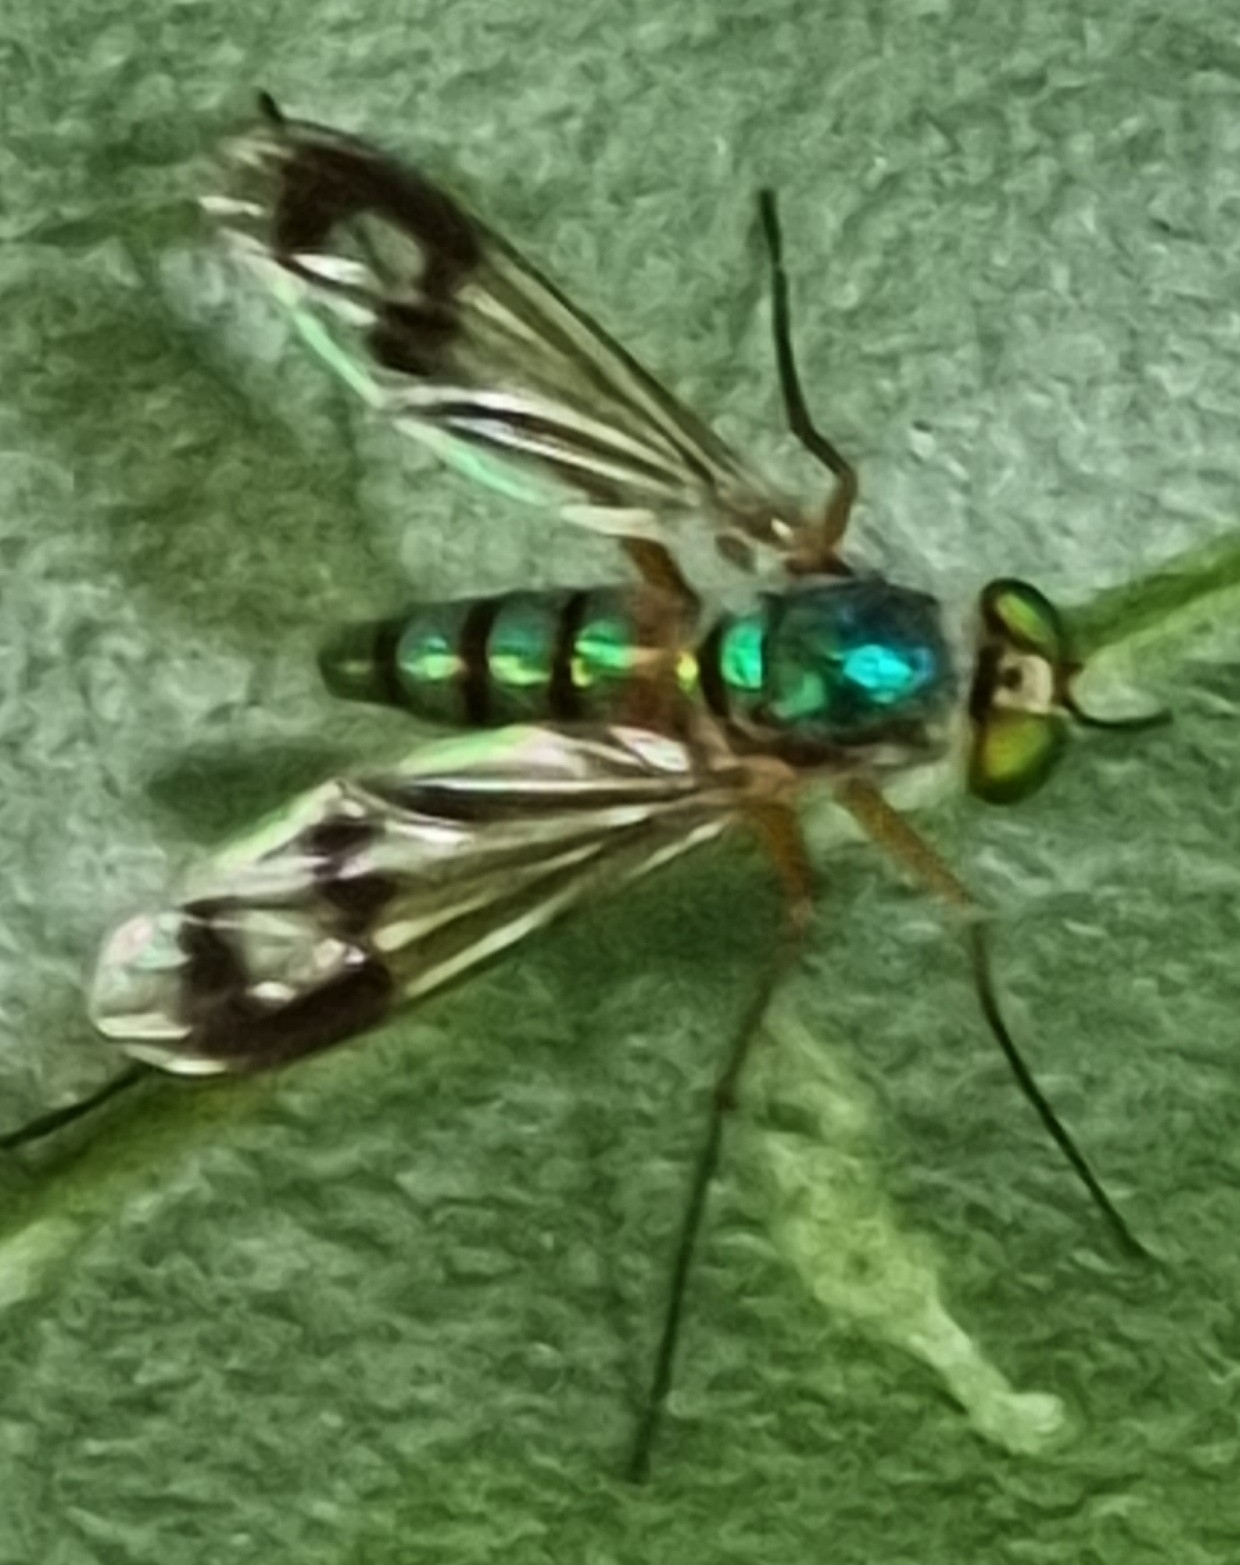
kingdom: Animalia
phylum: Arthropoda
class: Insecta
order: Diptera
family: Dolichopodidae
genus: Heteropsilopus
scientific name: Heteropsilopus khooi
